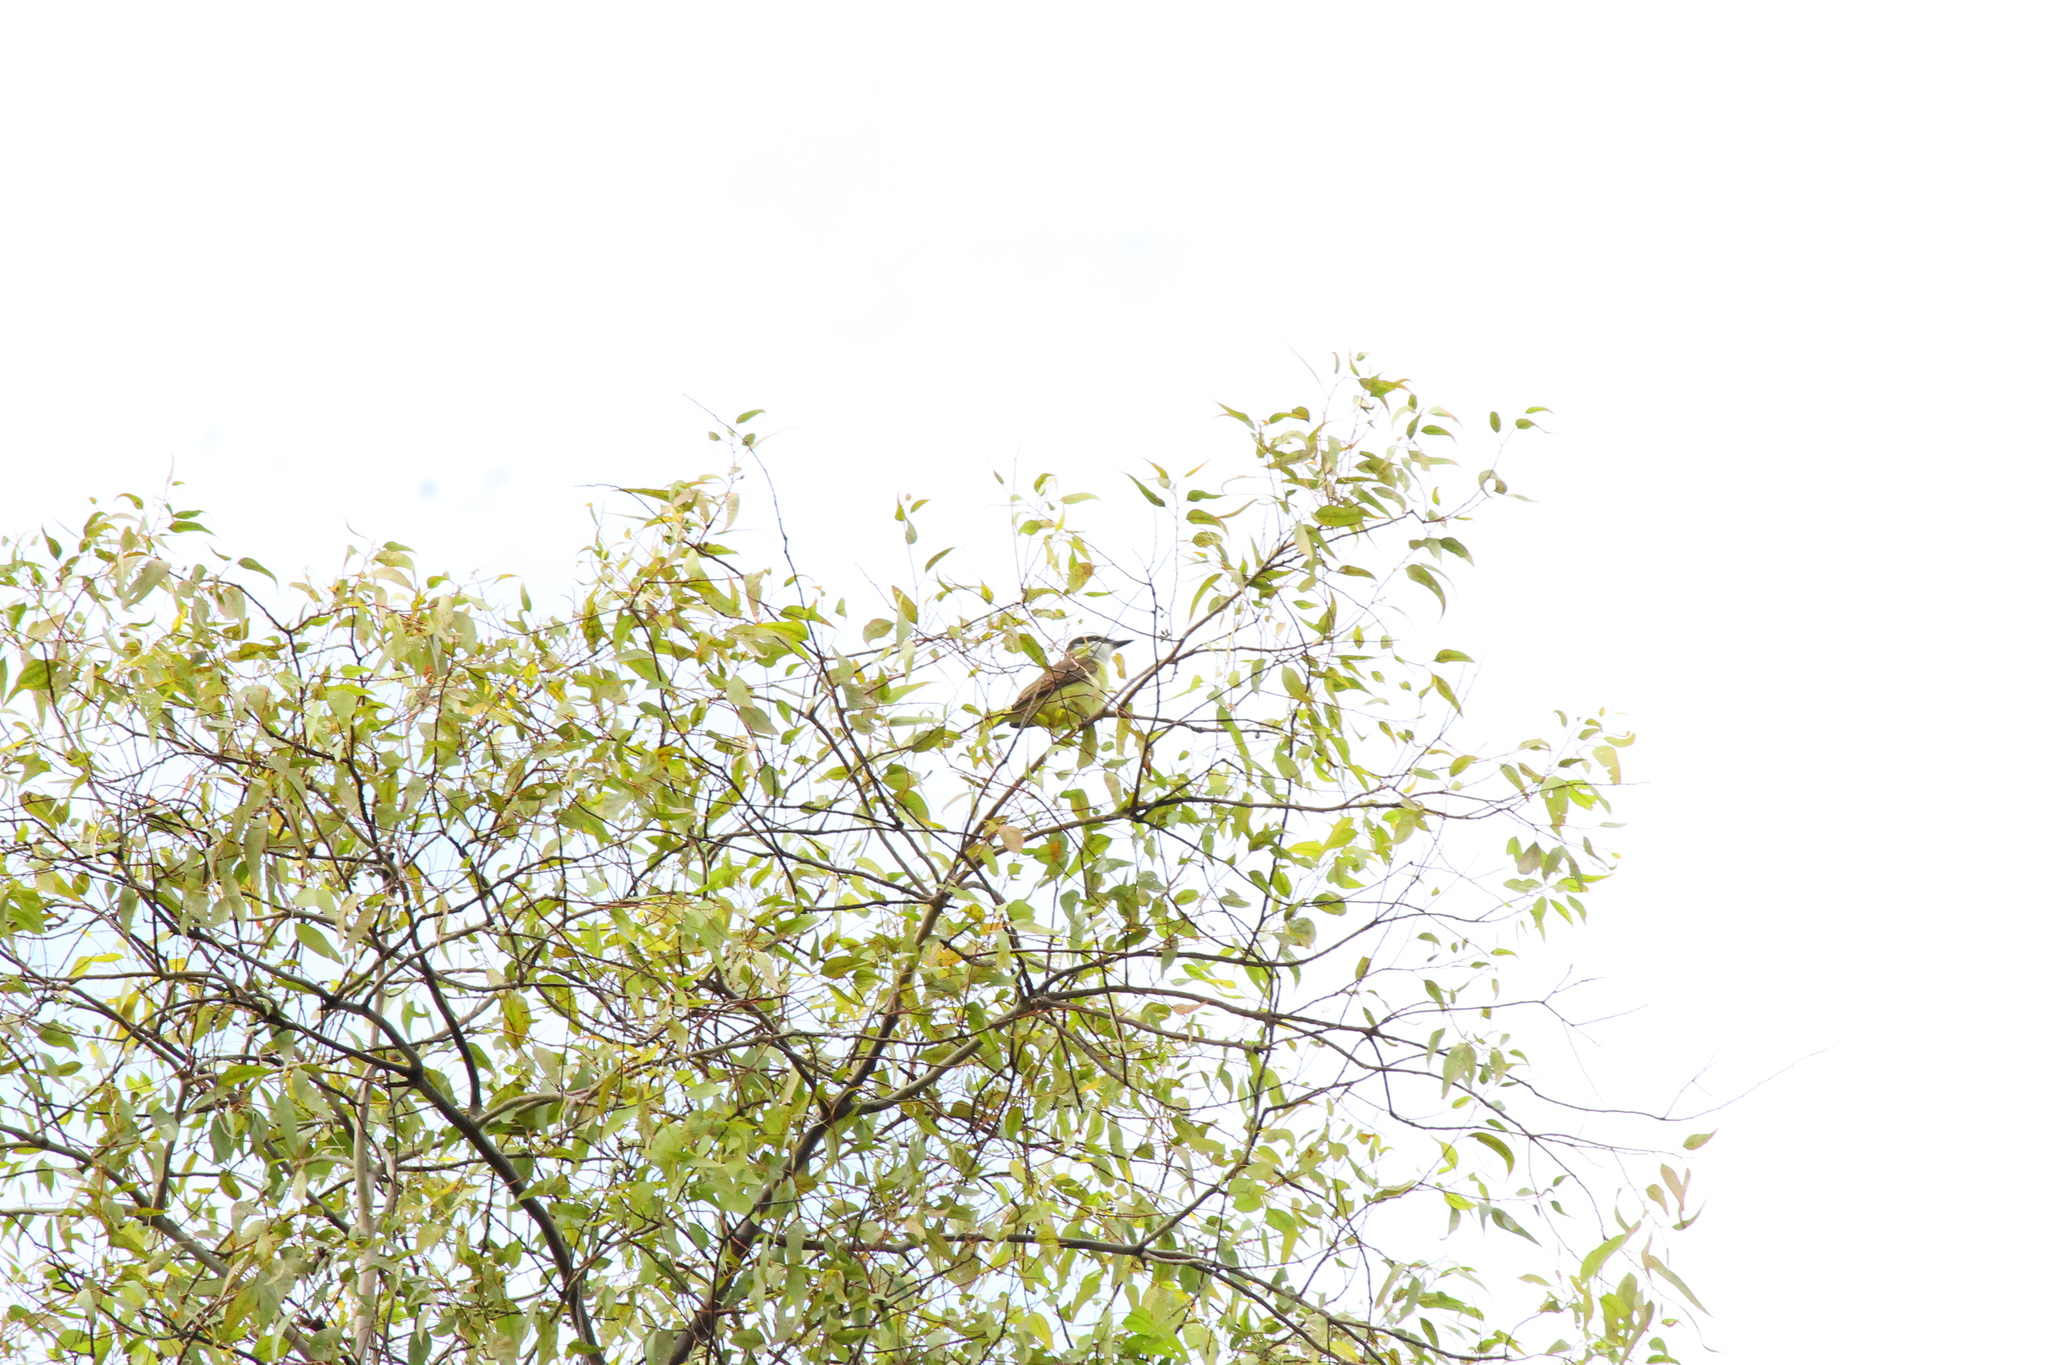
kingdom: Animalia
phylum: Chordata
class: Aves
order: Passeriformes
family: Tyrannidae
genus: Pitangus
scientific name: Pitangus sulphuratus
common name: Great kiskadee
